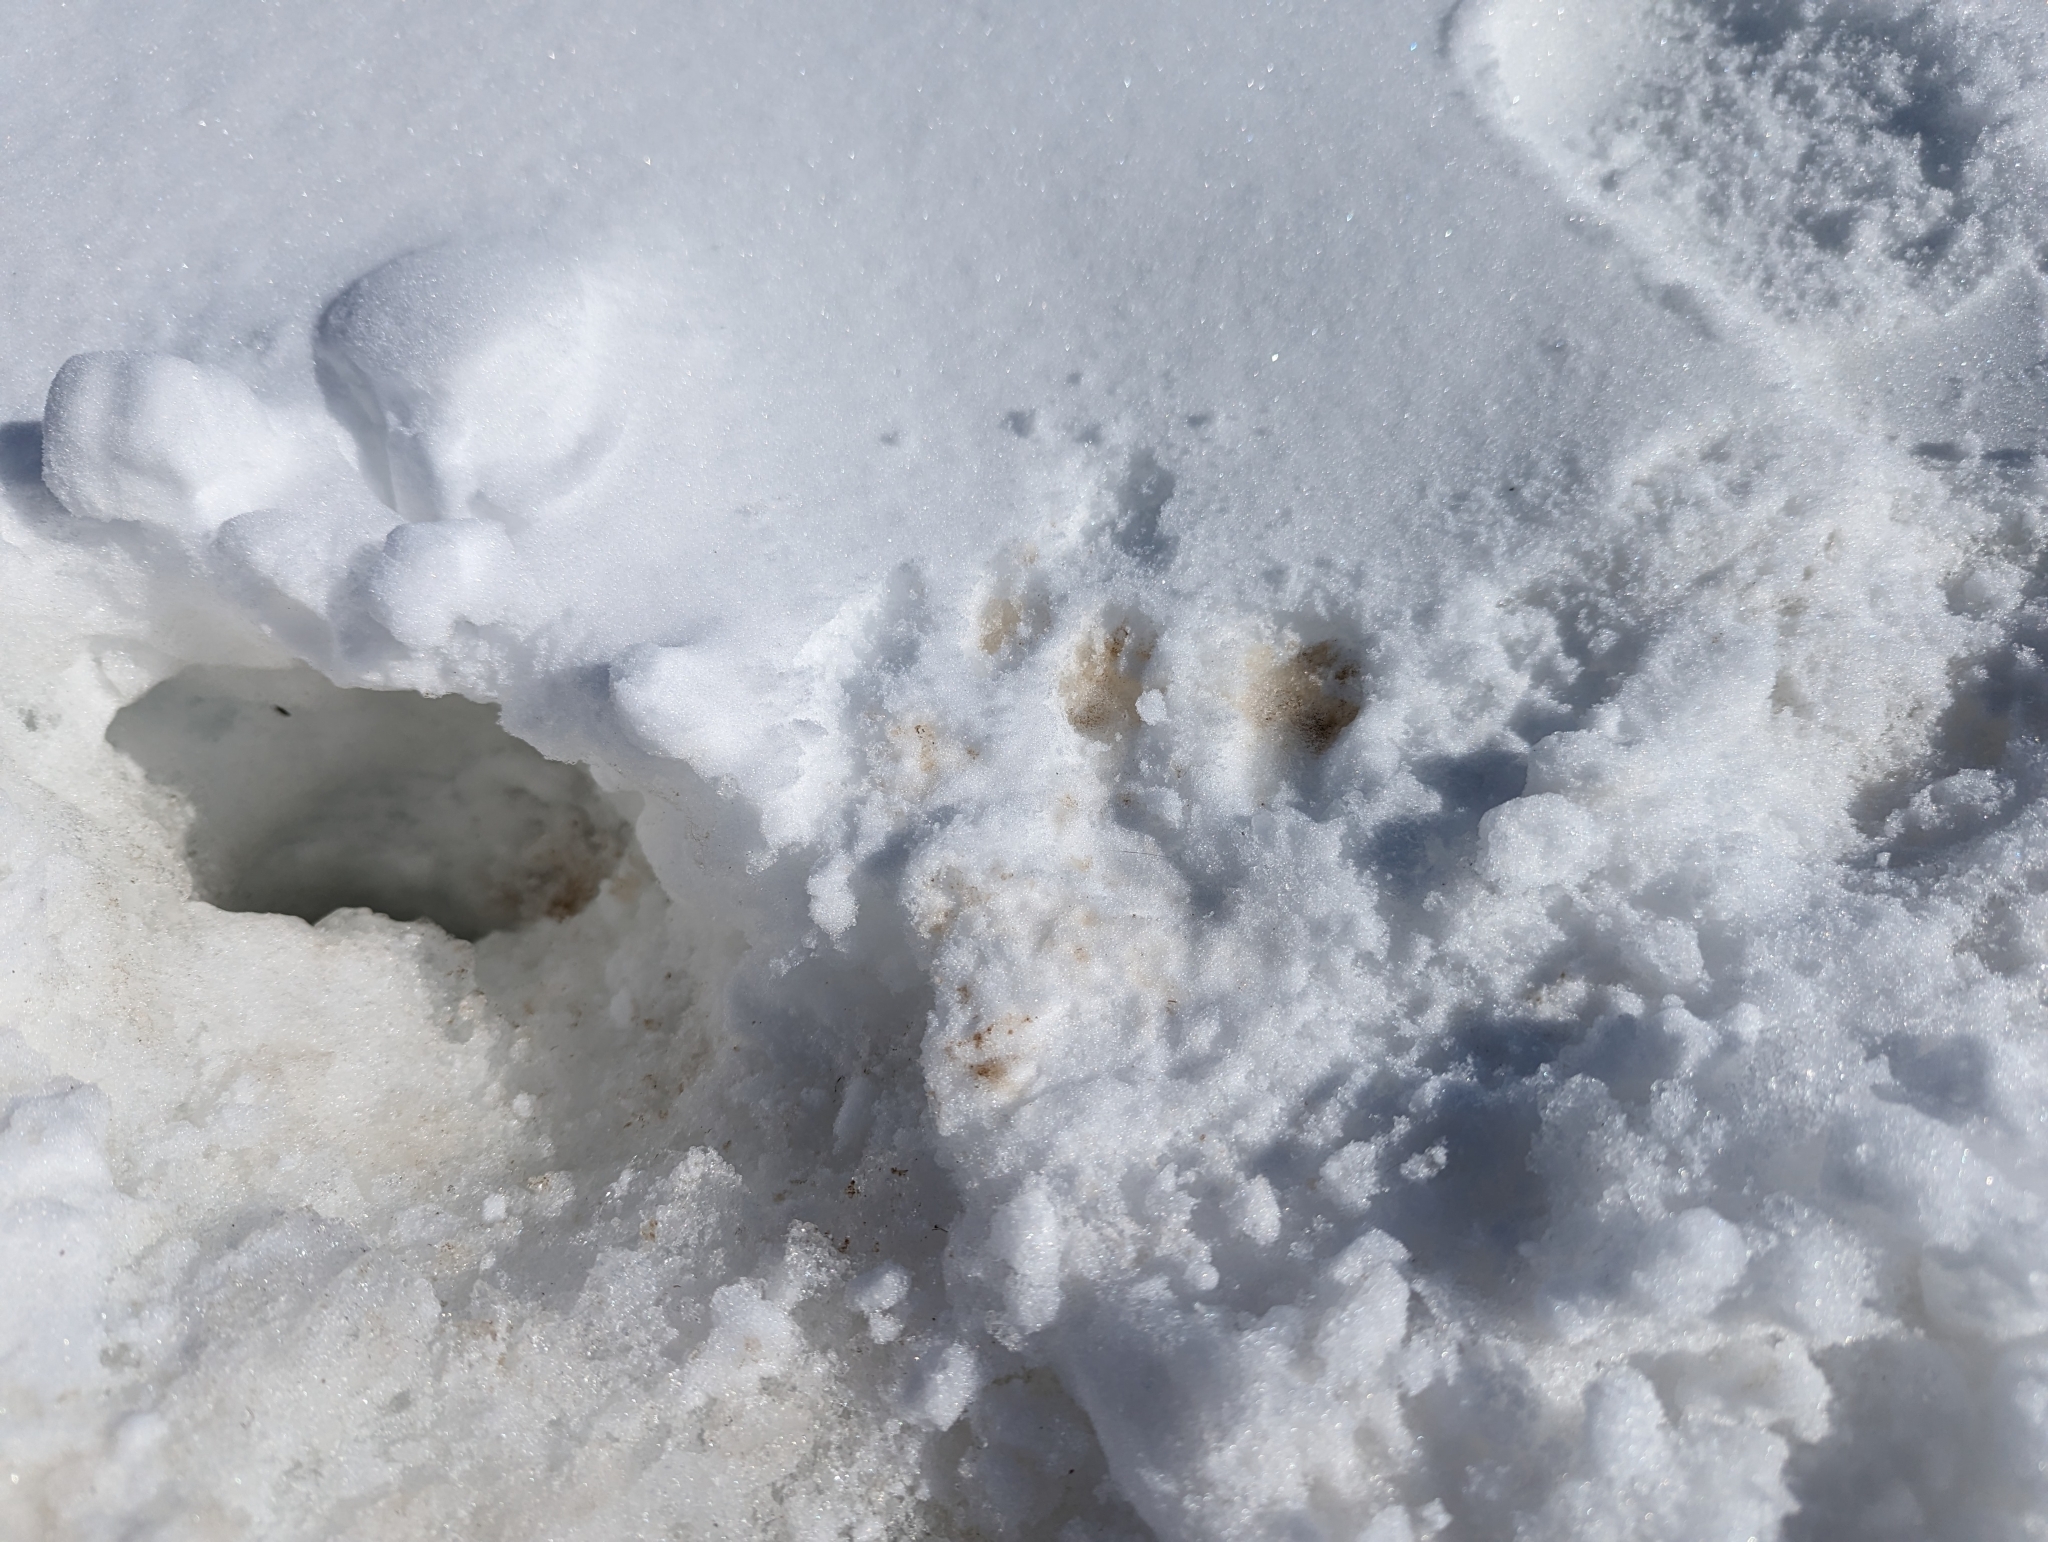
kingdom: Animalia
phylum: Chordata
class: Mammalia
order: Rodentia
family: Sciuridae
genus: Urocitellus
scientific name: Urocitellus parryii
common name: Arctic ground squirrel
